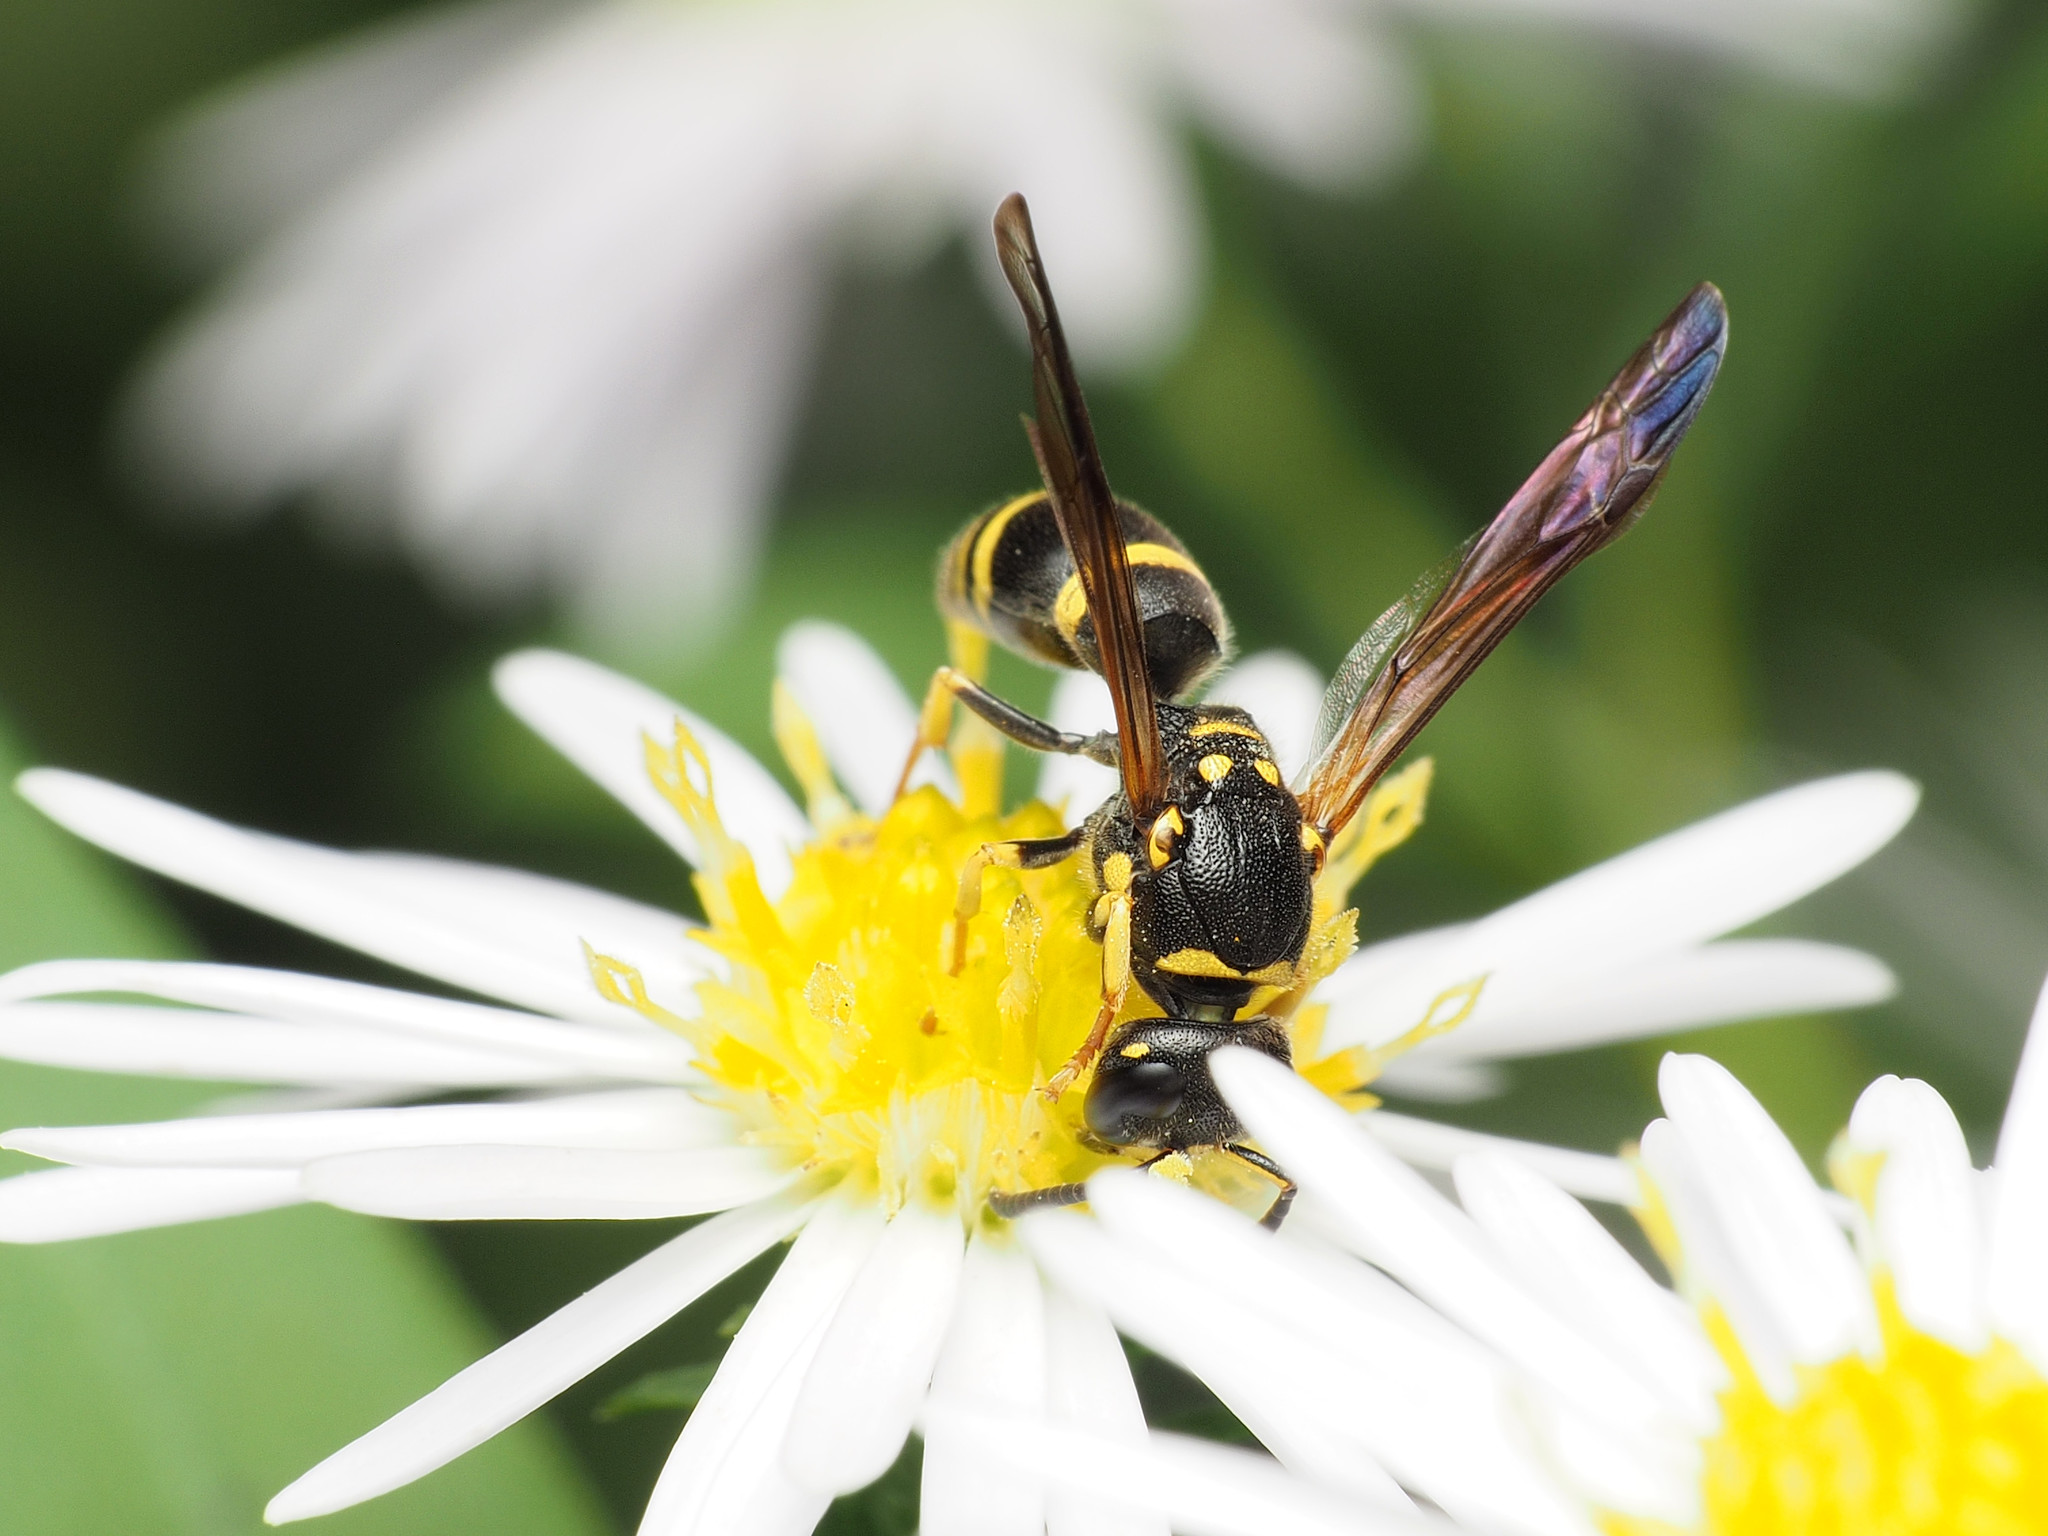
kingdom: Animalia
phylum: Arthropoda
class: Insecta
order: Hymenoptera
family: Vespidae
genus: Ancistrocerus
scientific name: Ancistrocerus adiabatus
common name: Bramble mason wasp
